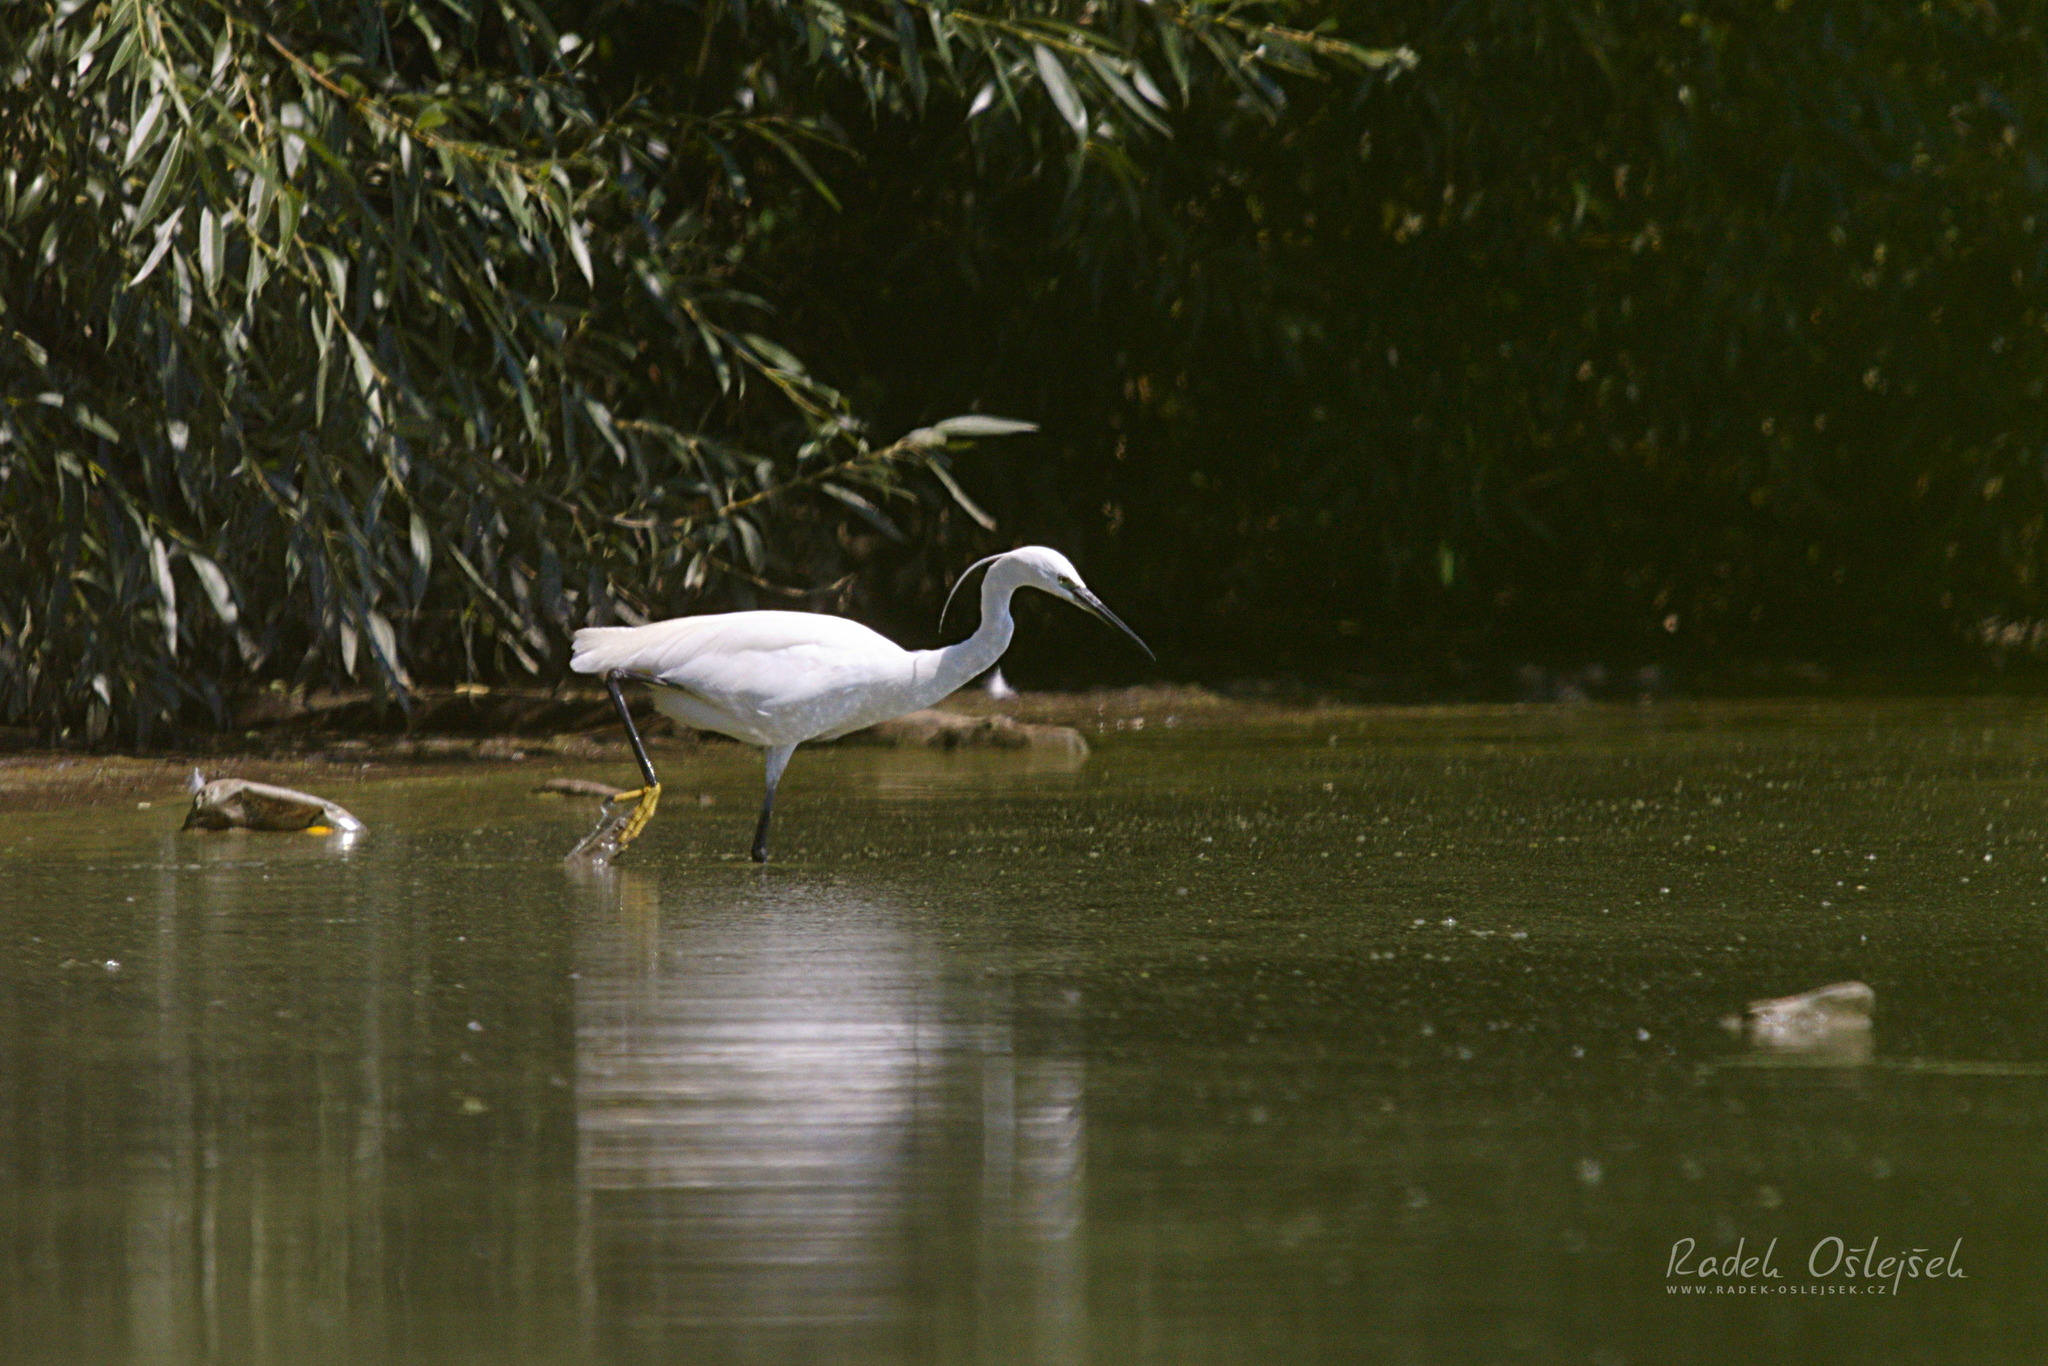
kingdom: Animalia
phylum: Chordata
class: Aves
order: Pelecaniformes
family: Ardeidae
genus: Egretta
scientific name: Egretta garzetta
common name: Little egret
